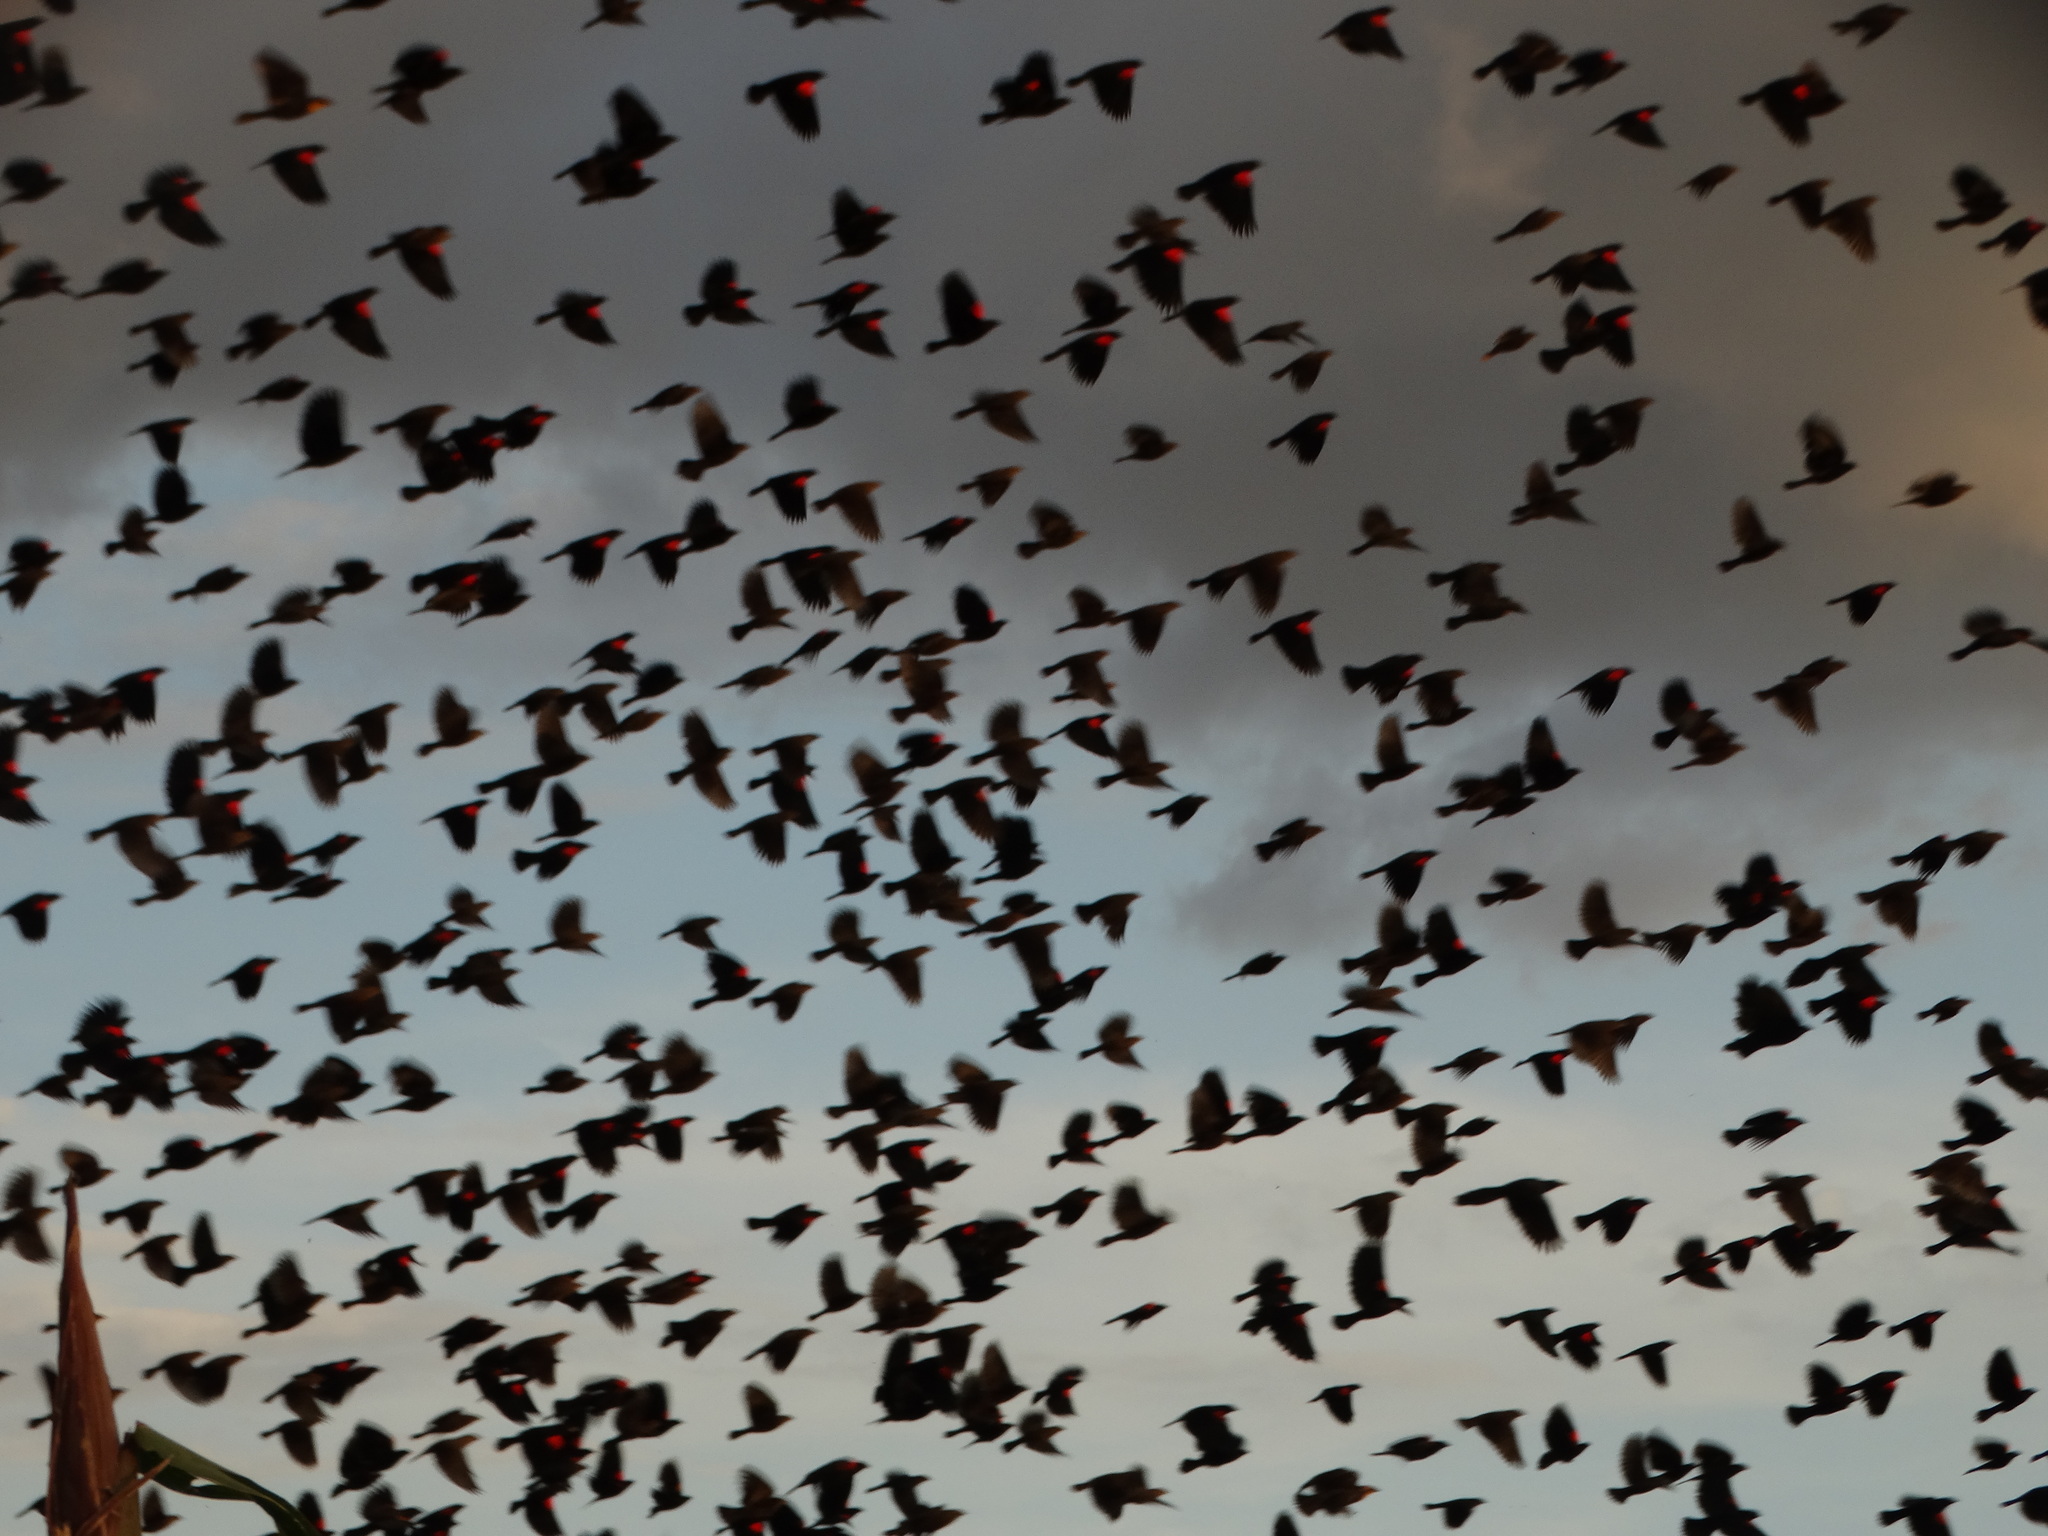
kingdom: Animalia
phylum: Chordata
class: Aves
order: Passeriformes
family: Icteridae
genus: Agelaius
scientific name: Agelaius phoeniceus
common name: Red-winged blackbird
